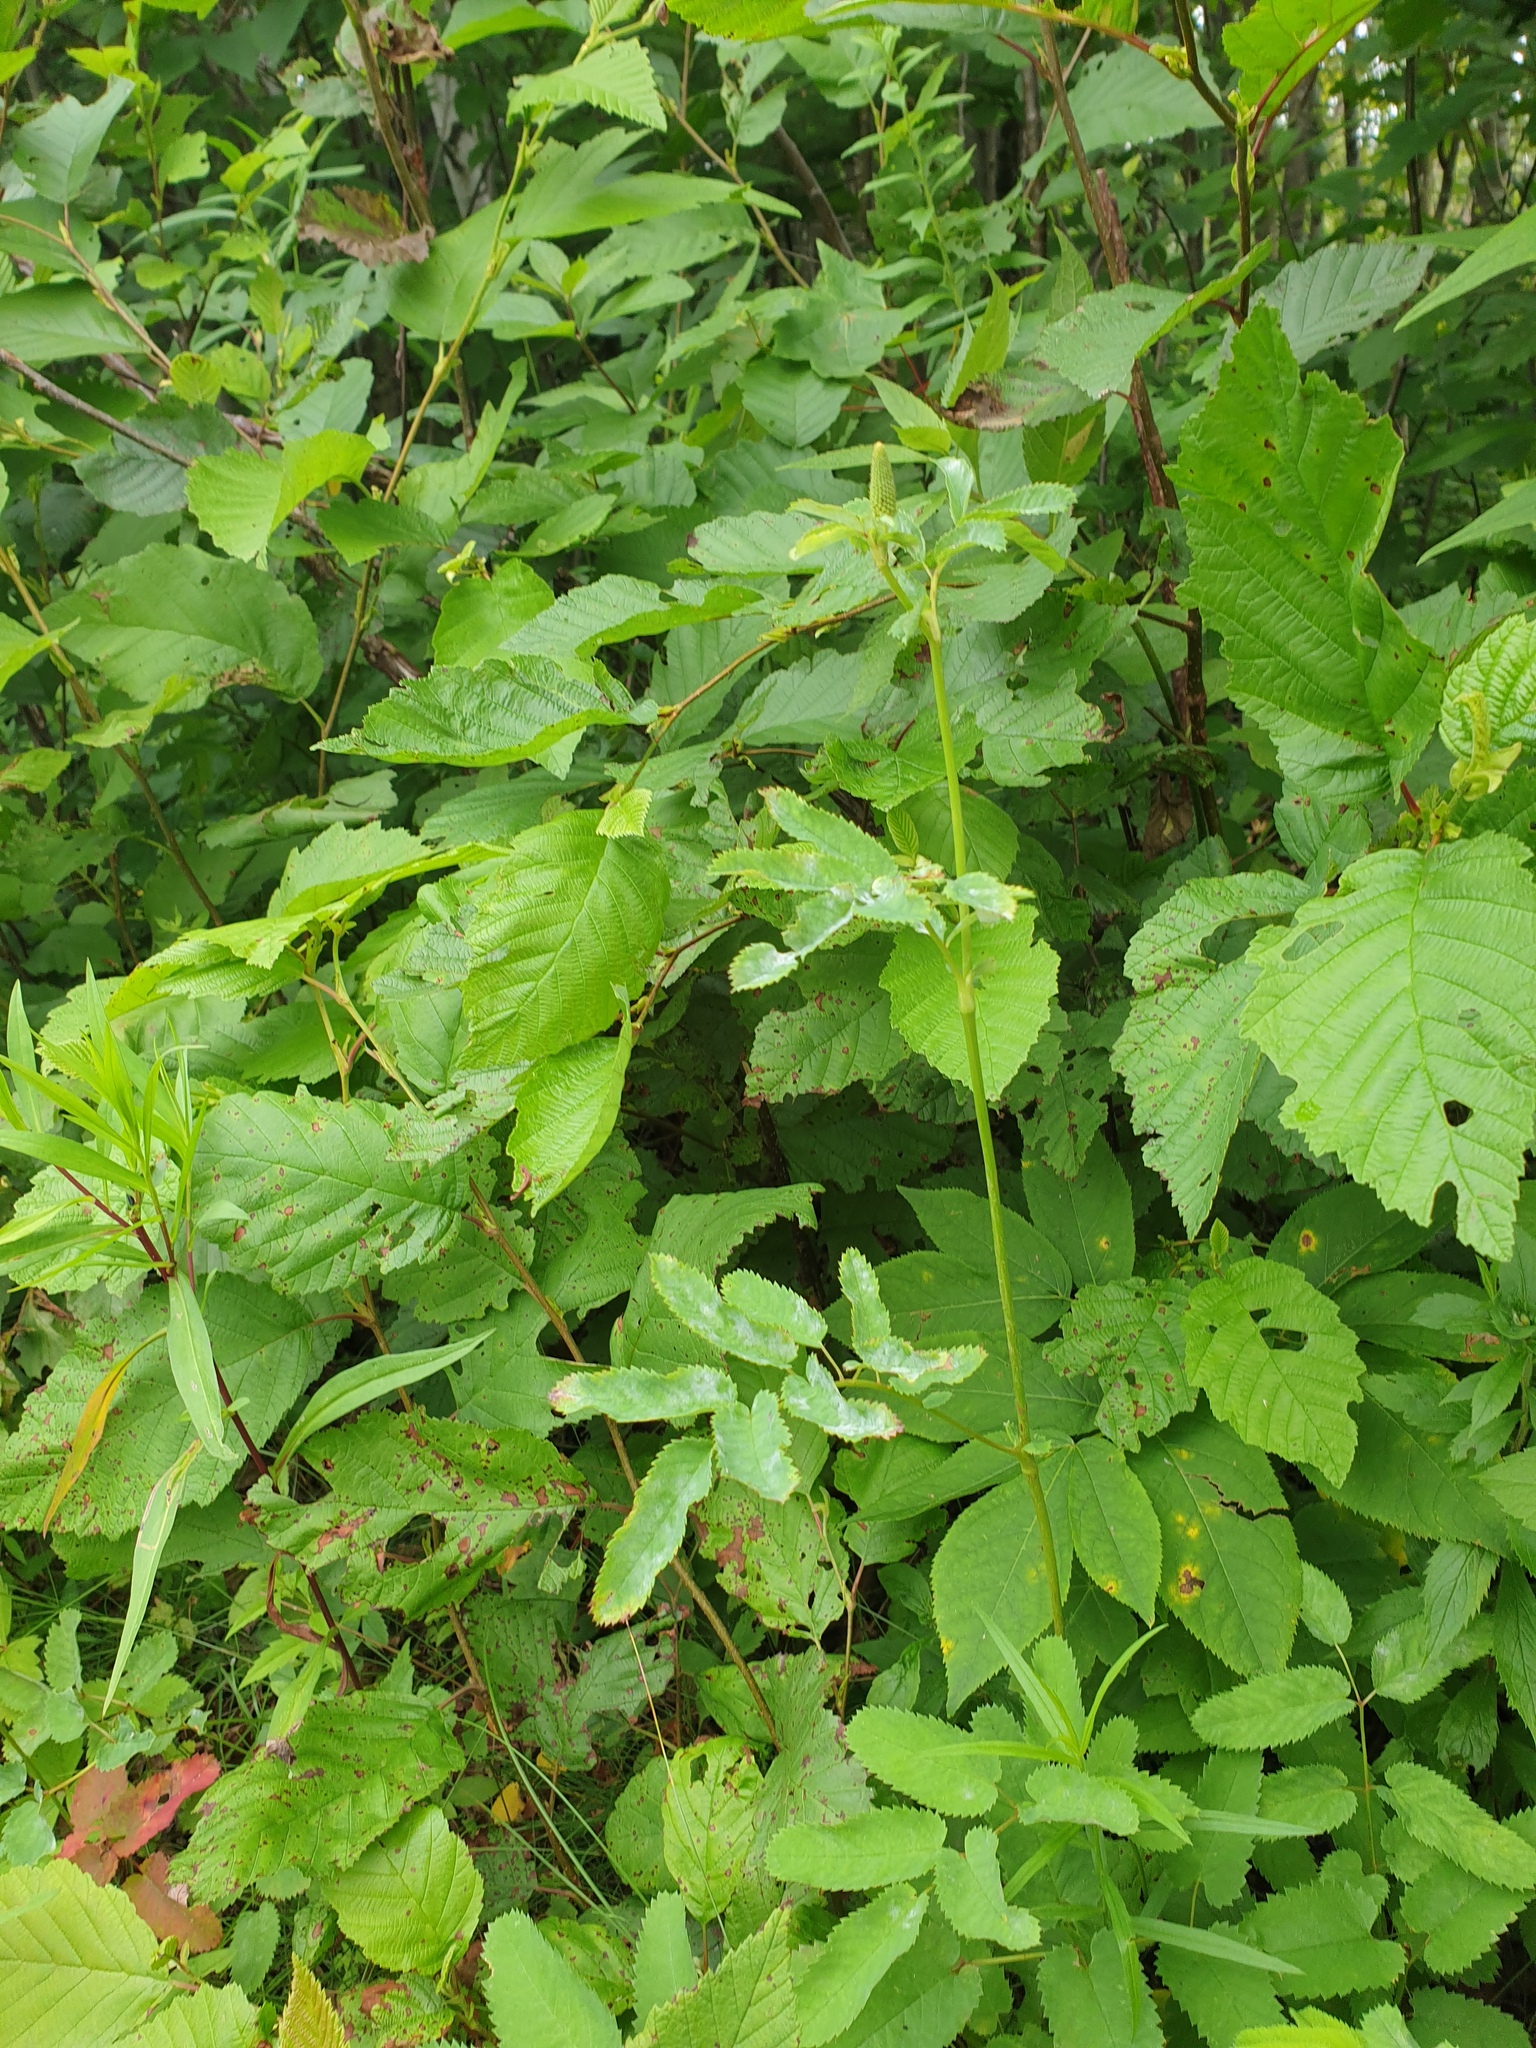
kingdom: Plantae
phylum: Tracheophyta
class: Magnoliopsida
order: Rosales
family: Rosaceae
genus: Sanguisorba
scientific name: Sanguisorba canadensis
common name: White burnet
